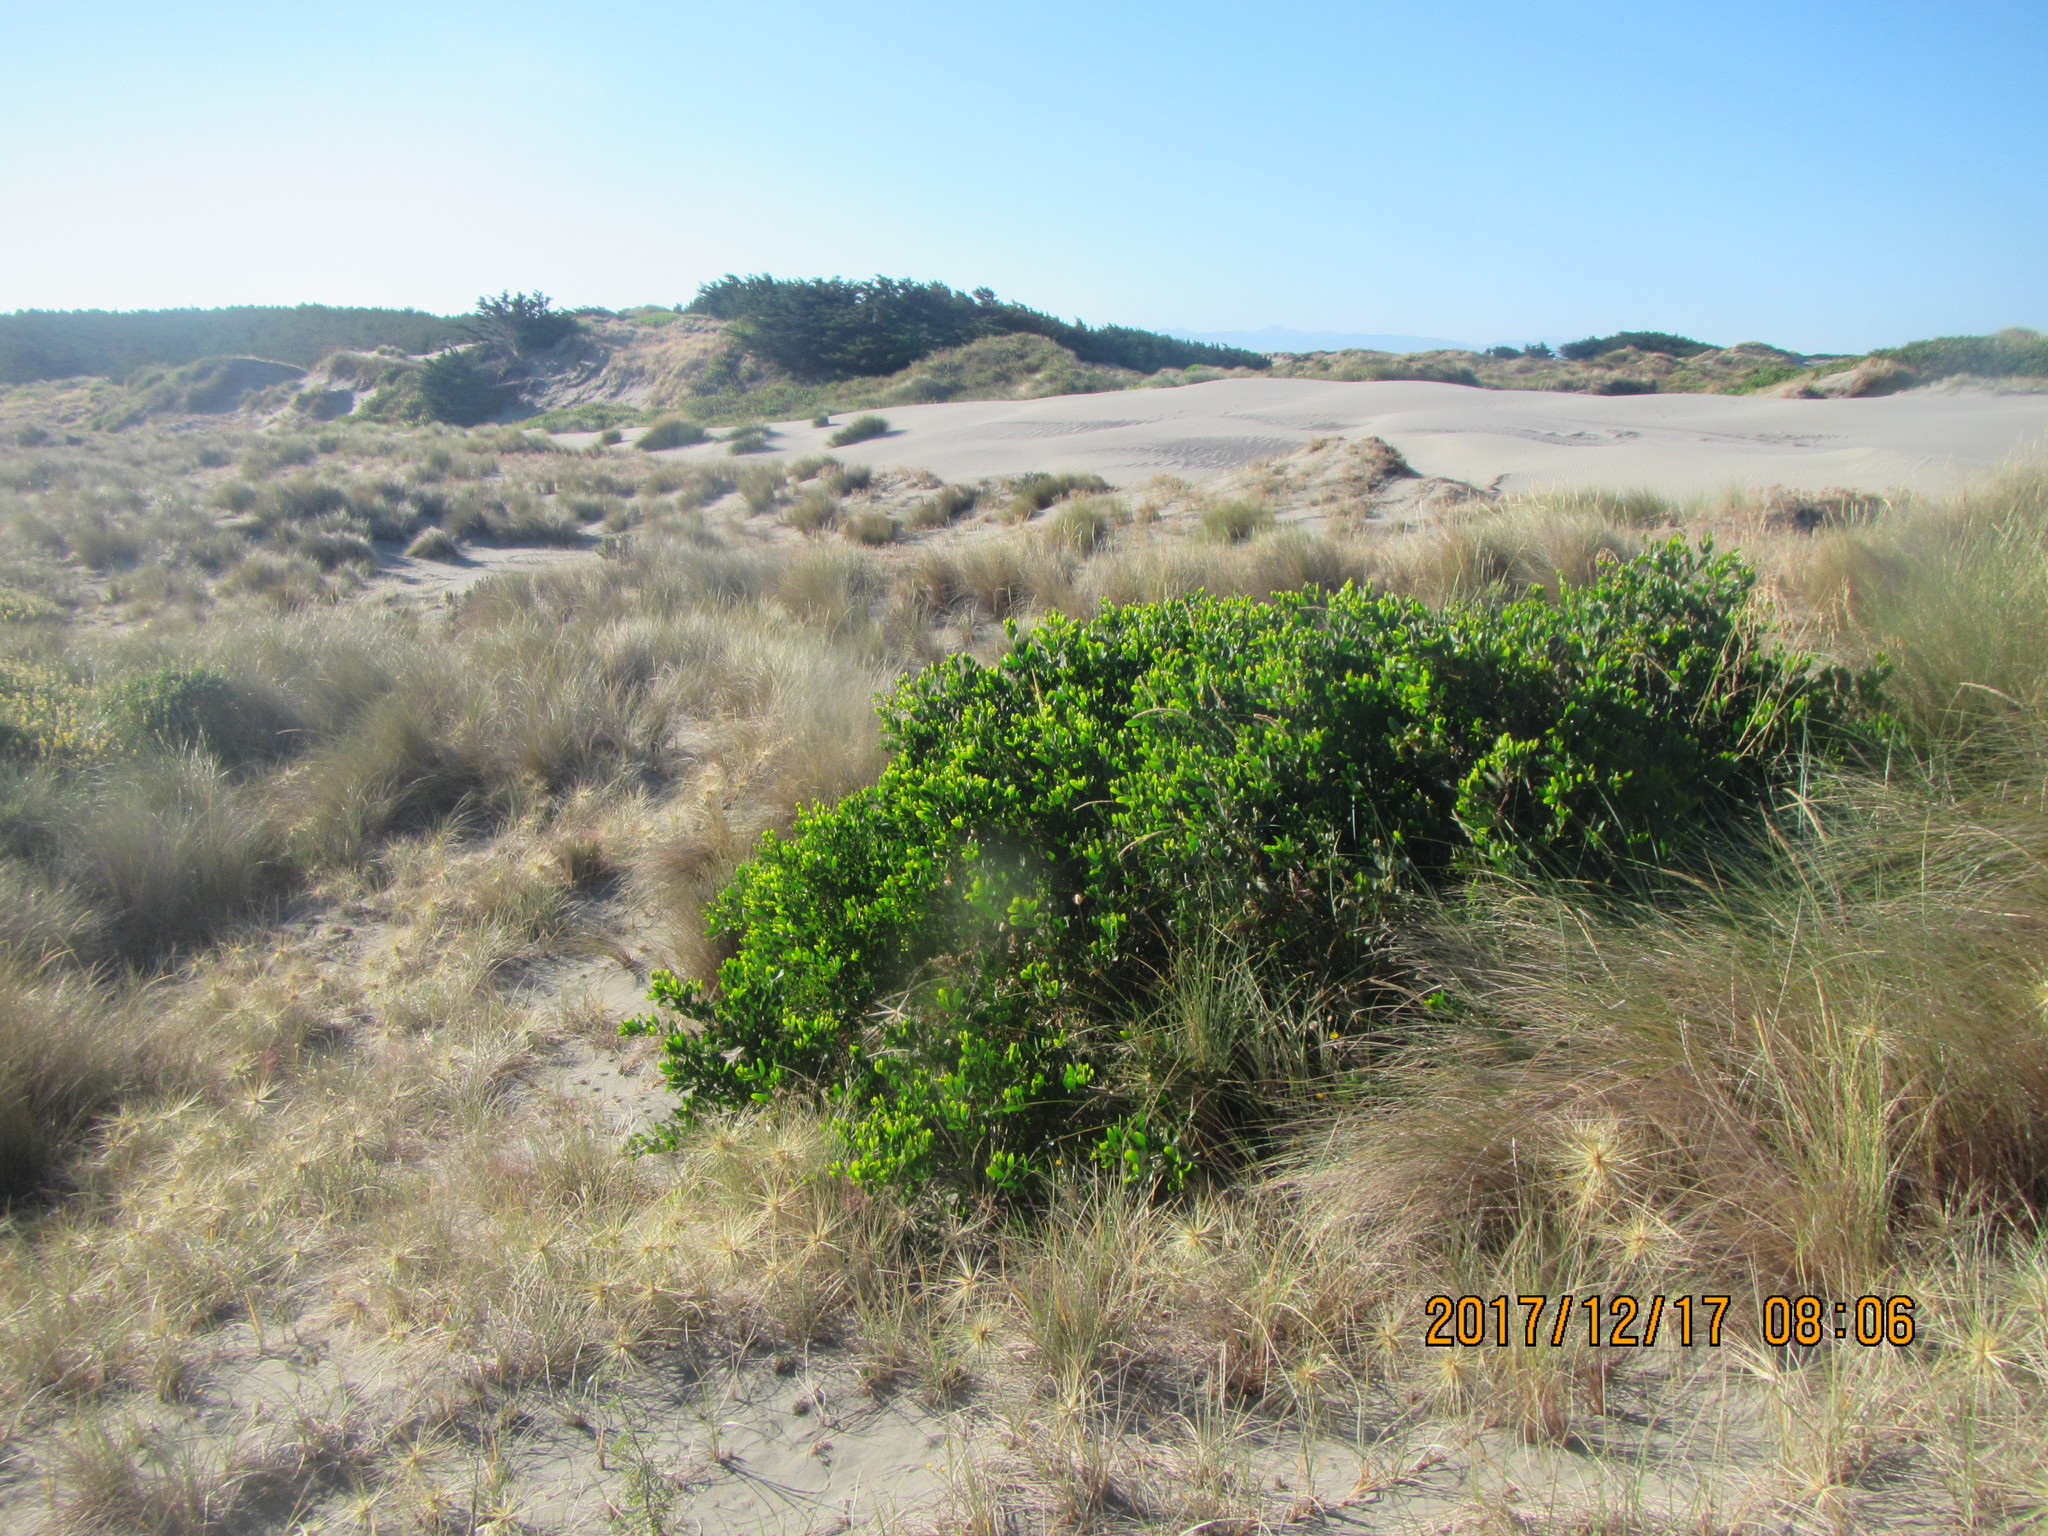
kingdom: Plantae
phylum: Tracheophyta
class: Magnoliopsida
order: Fabales
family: Fabaceae
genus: Acacia
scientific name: Acacia longifolia
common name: Sydney golden wattle
